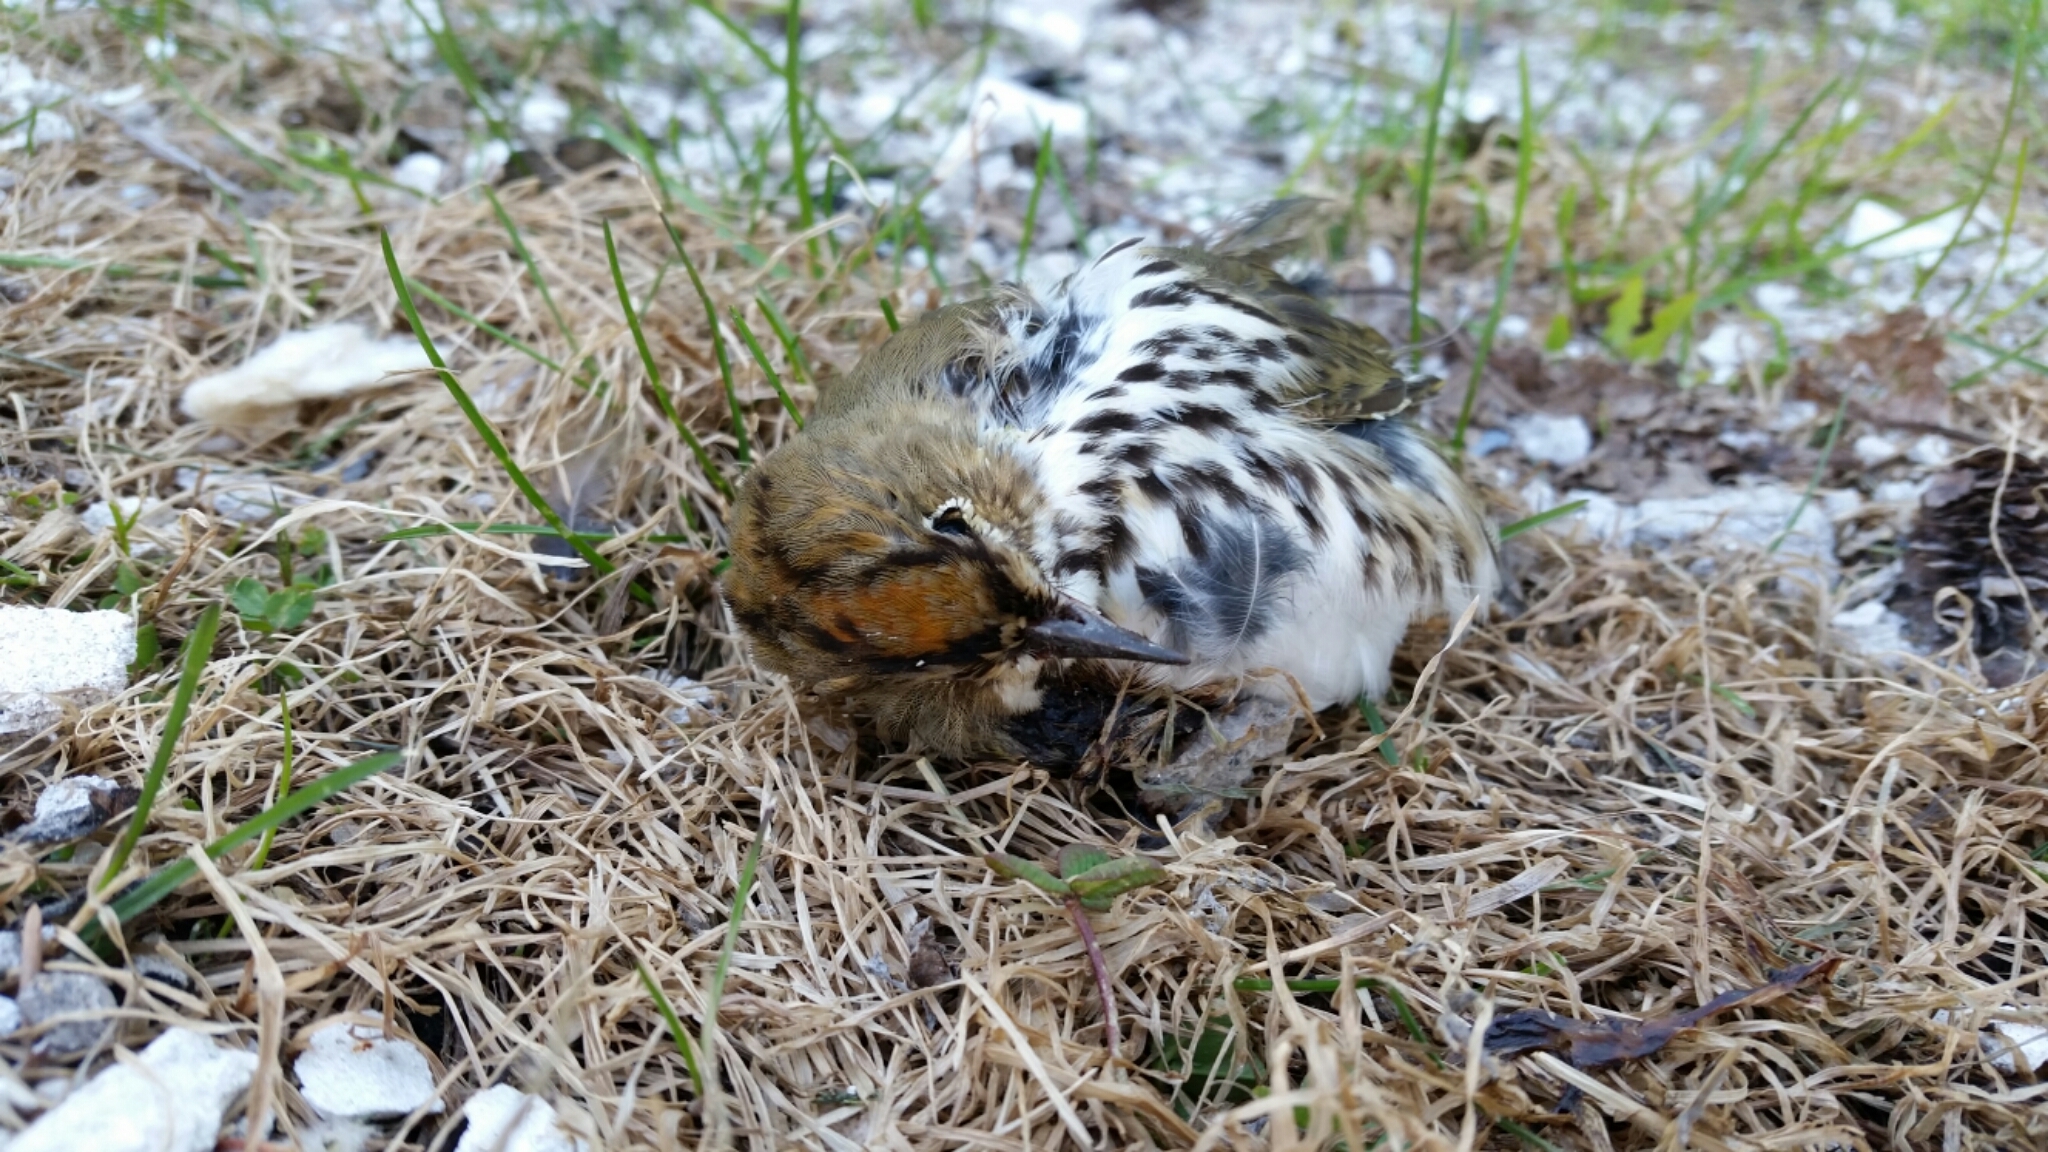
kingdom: Animalia
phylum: Chordata
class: Aves
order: Passeriformes
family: Parulidae
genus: Seiurus
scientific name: Seiurus aurocapilla
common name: Ovenbird
